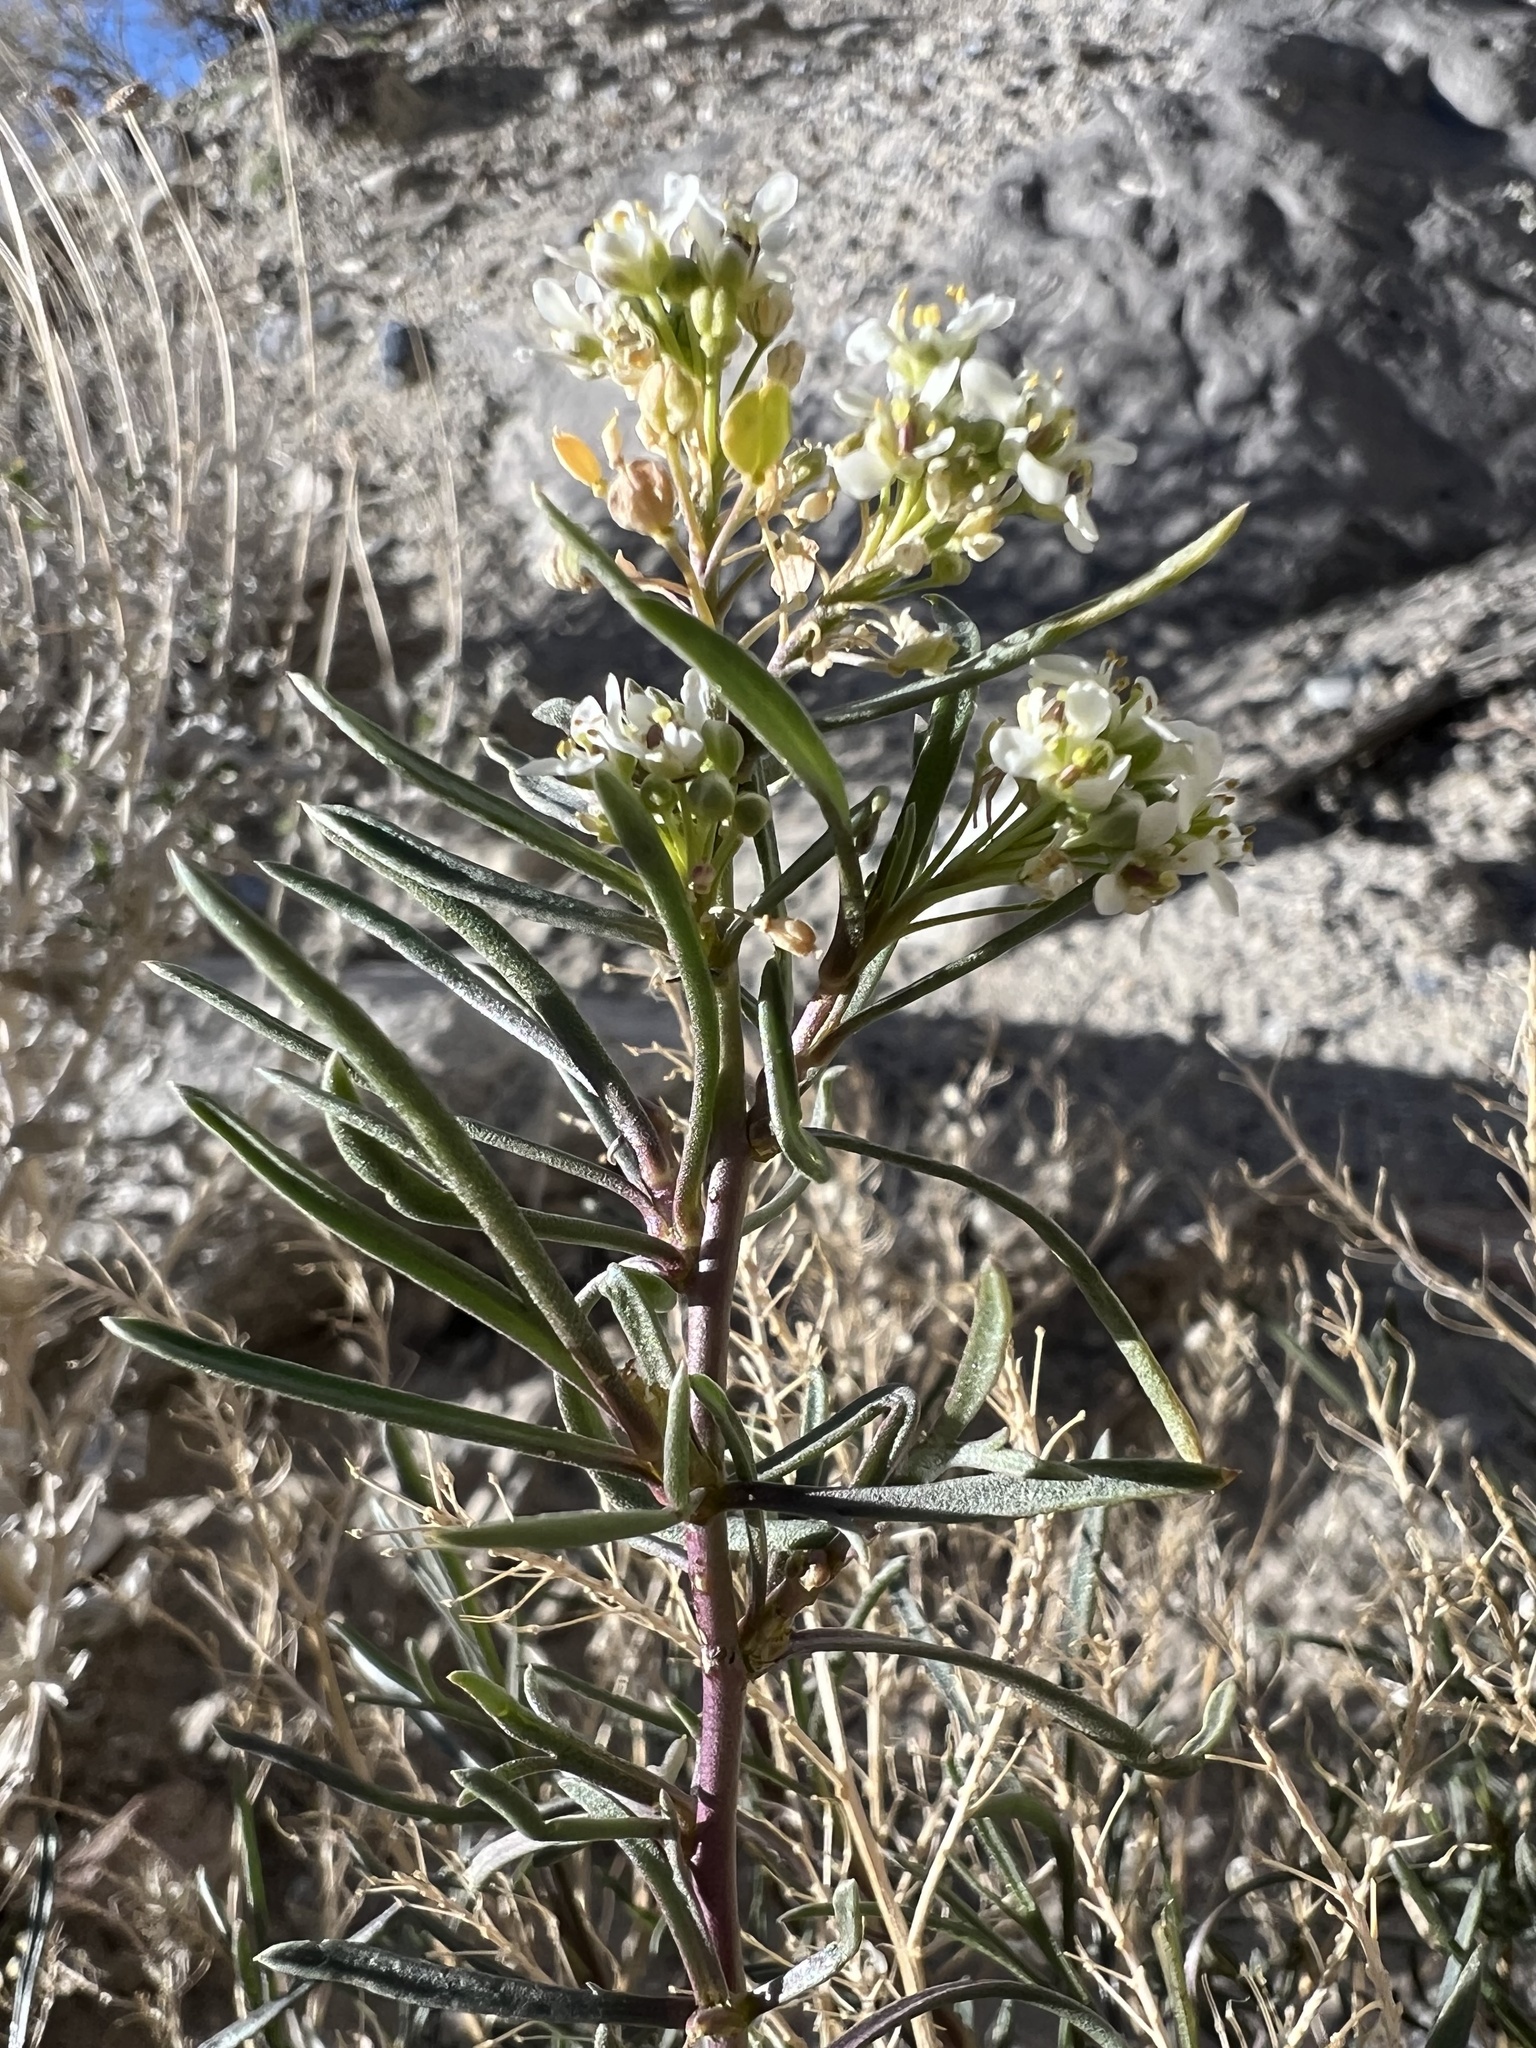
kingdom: Plantae
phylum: Tracheophyta
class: Magnoliopsida
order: Brassicales
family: Brassicaceae
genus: Lepidium
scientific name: Lepidium fremontii
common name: Fremont's pepperwort
